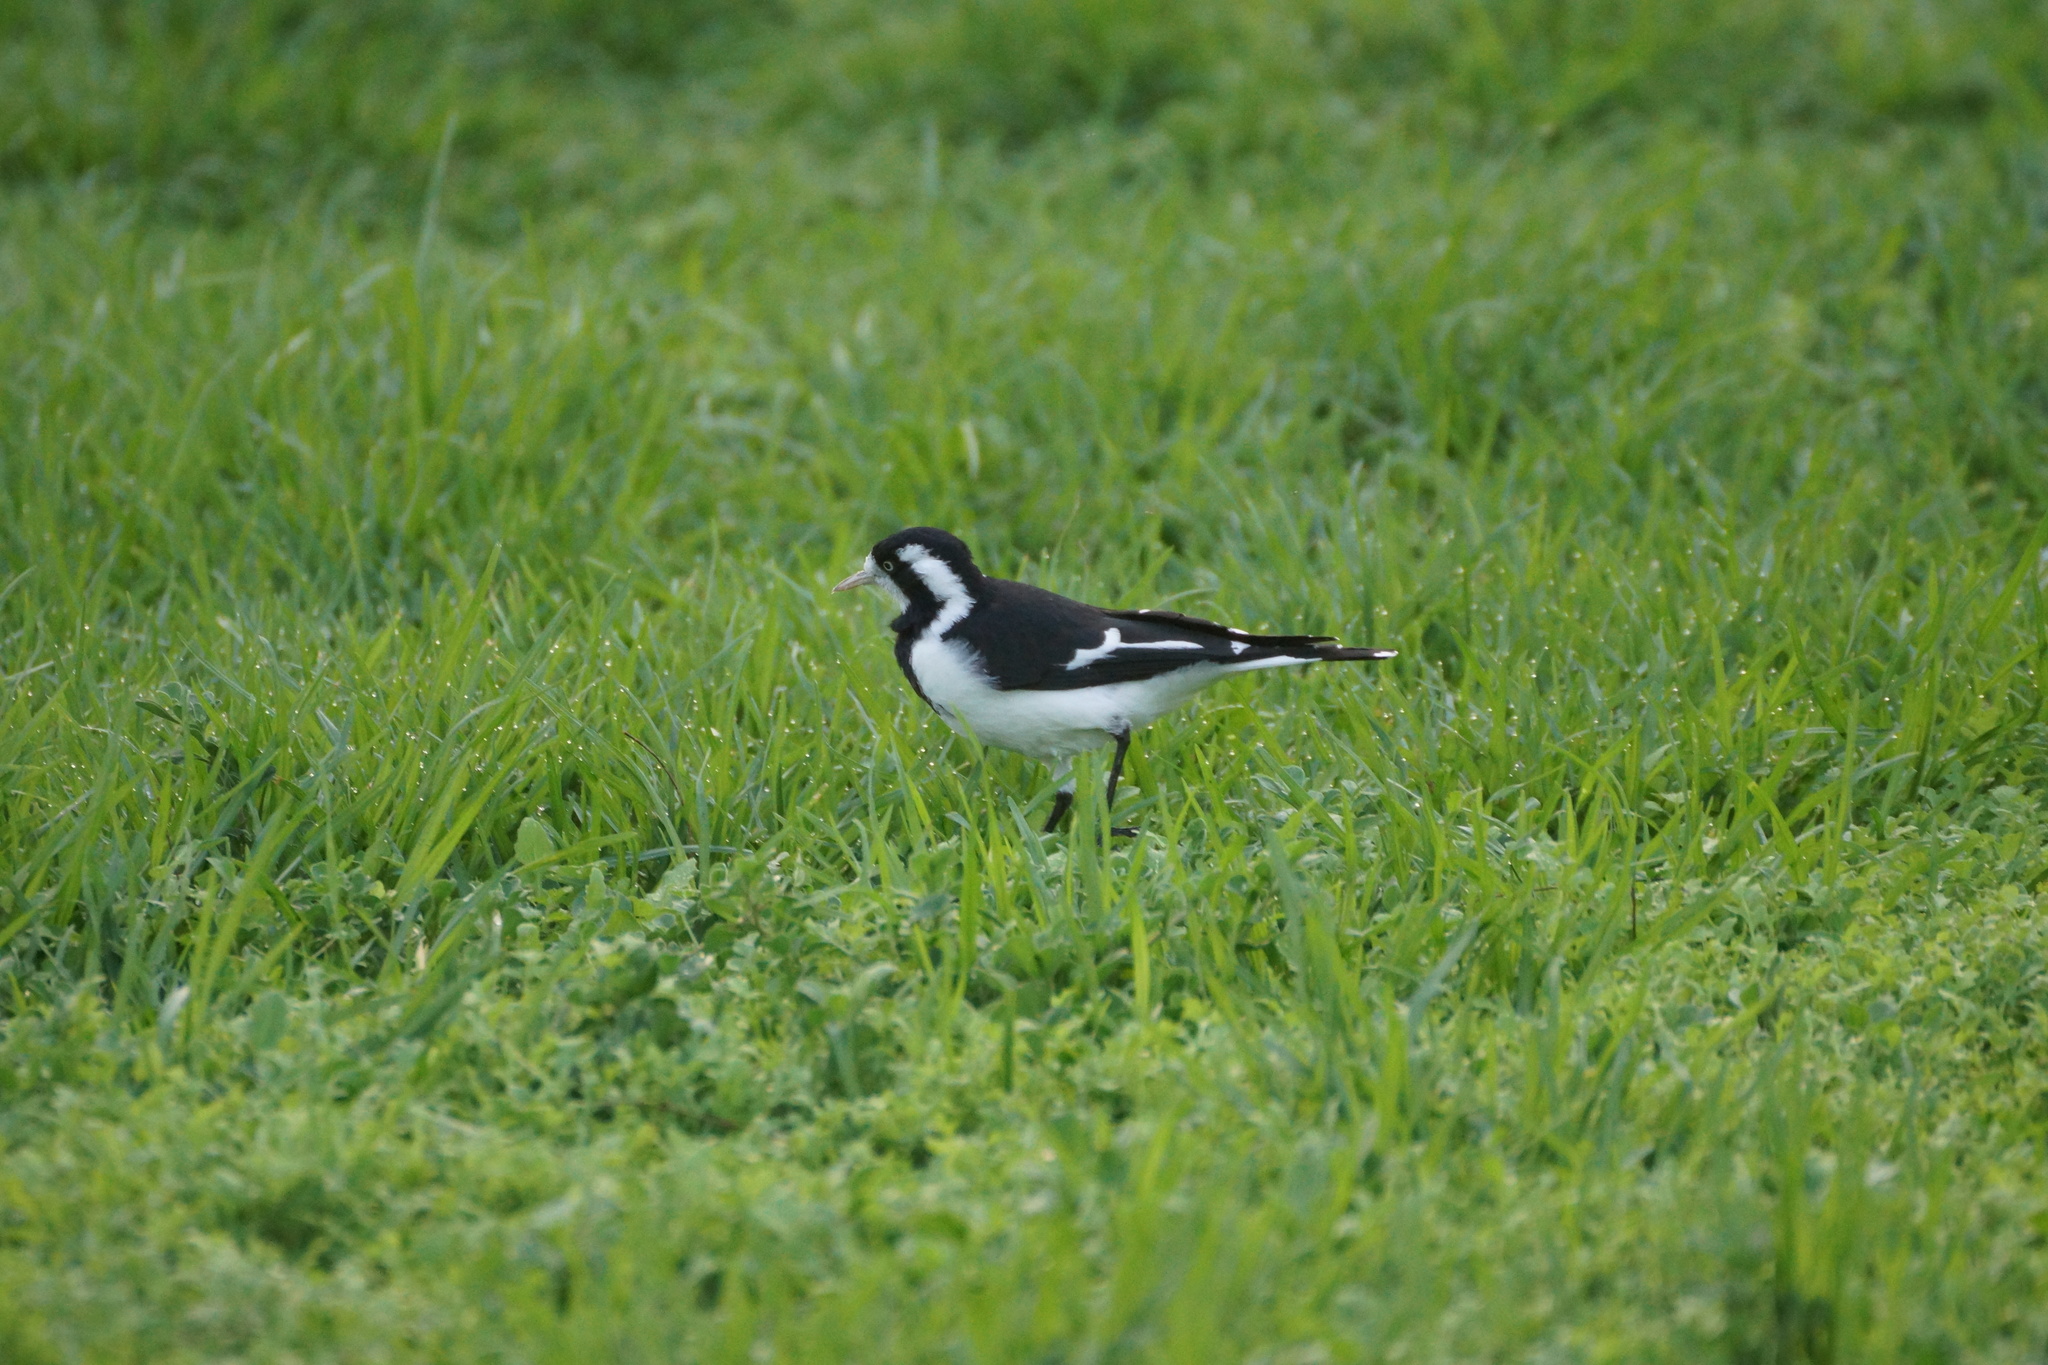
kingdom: Animalia
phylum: Chordata
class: Aves
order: Passeriformes
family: Monarchidae
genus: Grallina
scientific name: Grallina cyanoleuca
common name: Magpie-lark
